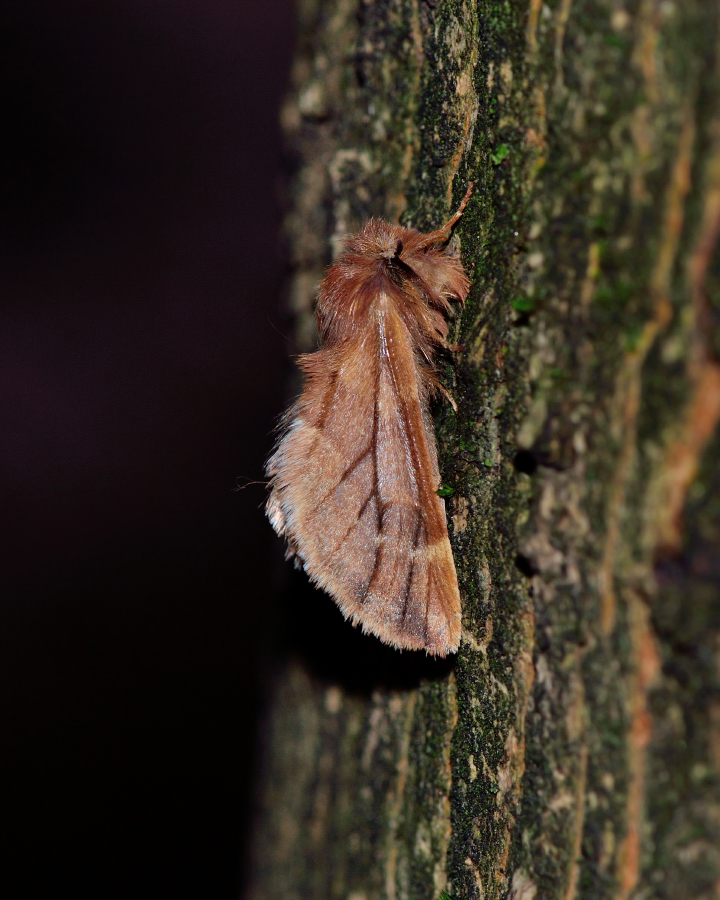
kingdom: Animalia
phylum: Arthropoda
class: Insecta
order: Lepidoptera
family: Notodontidae
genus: Ptilophora
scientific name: Ptilophora plumigera
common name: Plumed prominent
